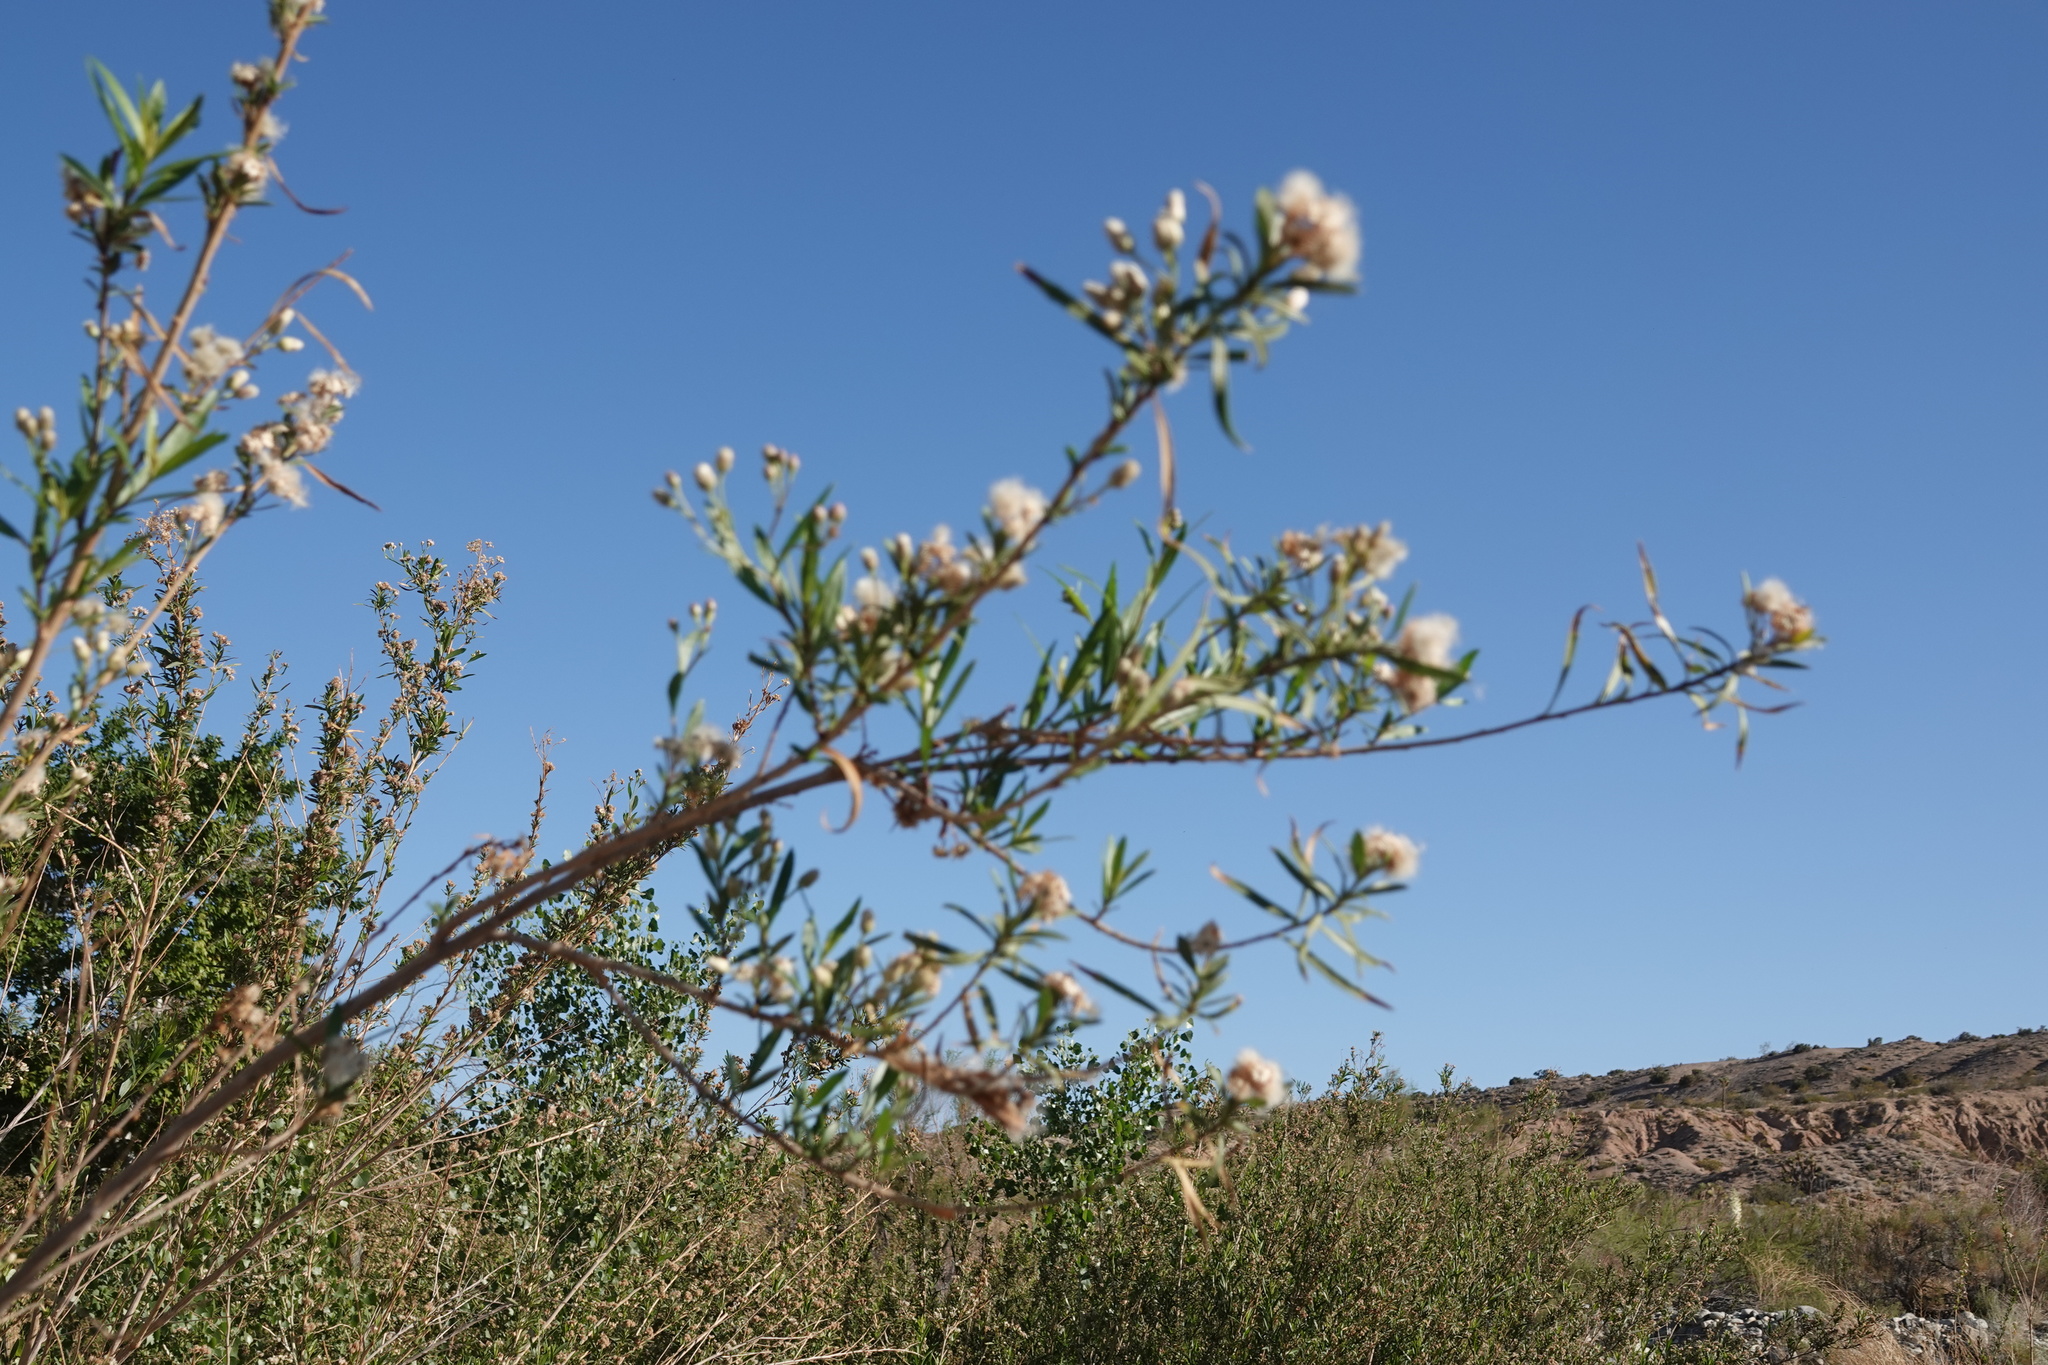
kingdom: Plantae
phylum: Tracheophyta
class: Magnoliopsida
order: Asterales
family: Asteraceae
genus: Baccharis
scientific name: Baccharis salicifolia
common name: Sticky baccharis
